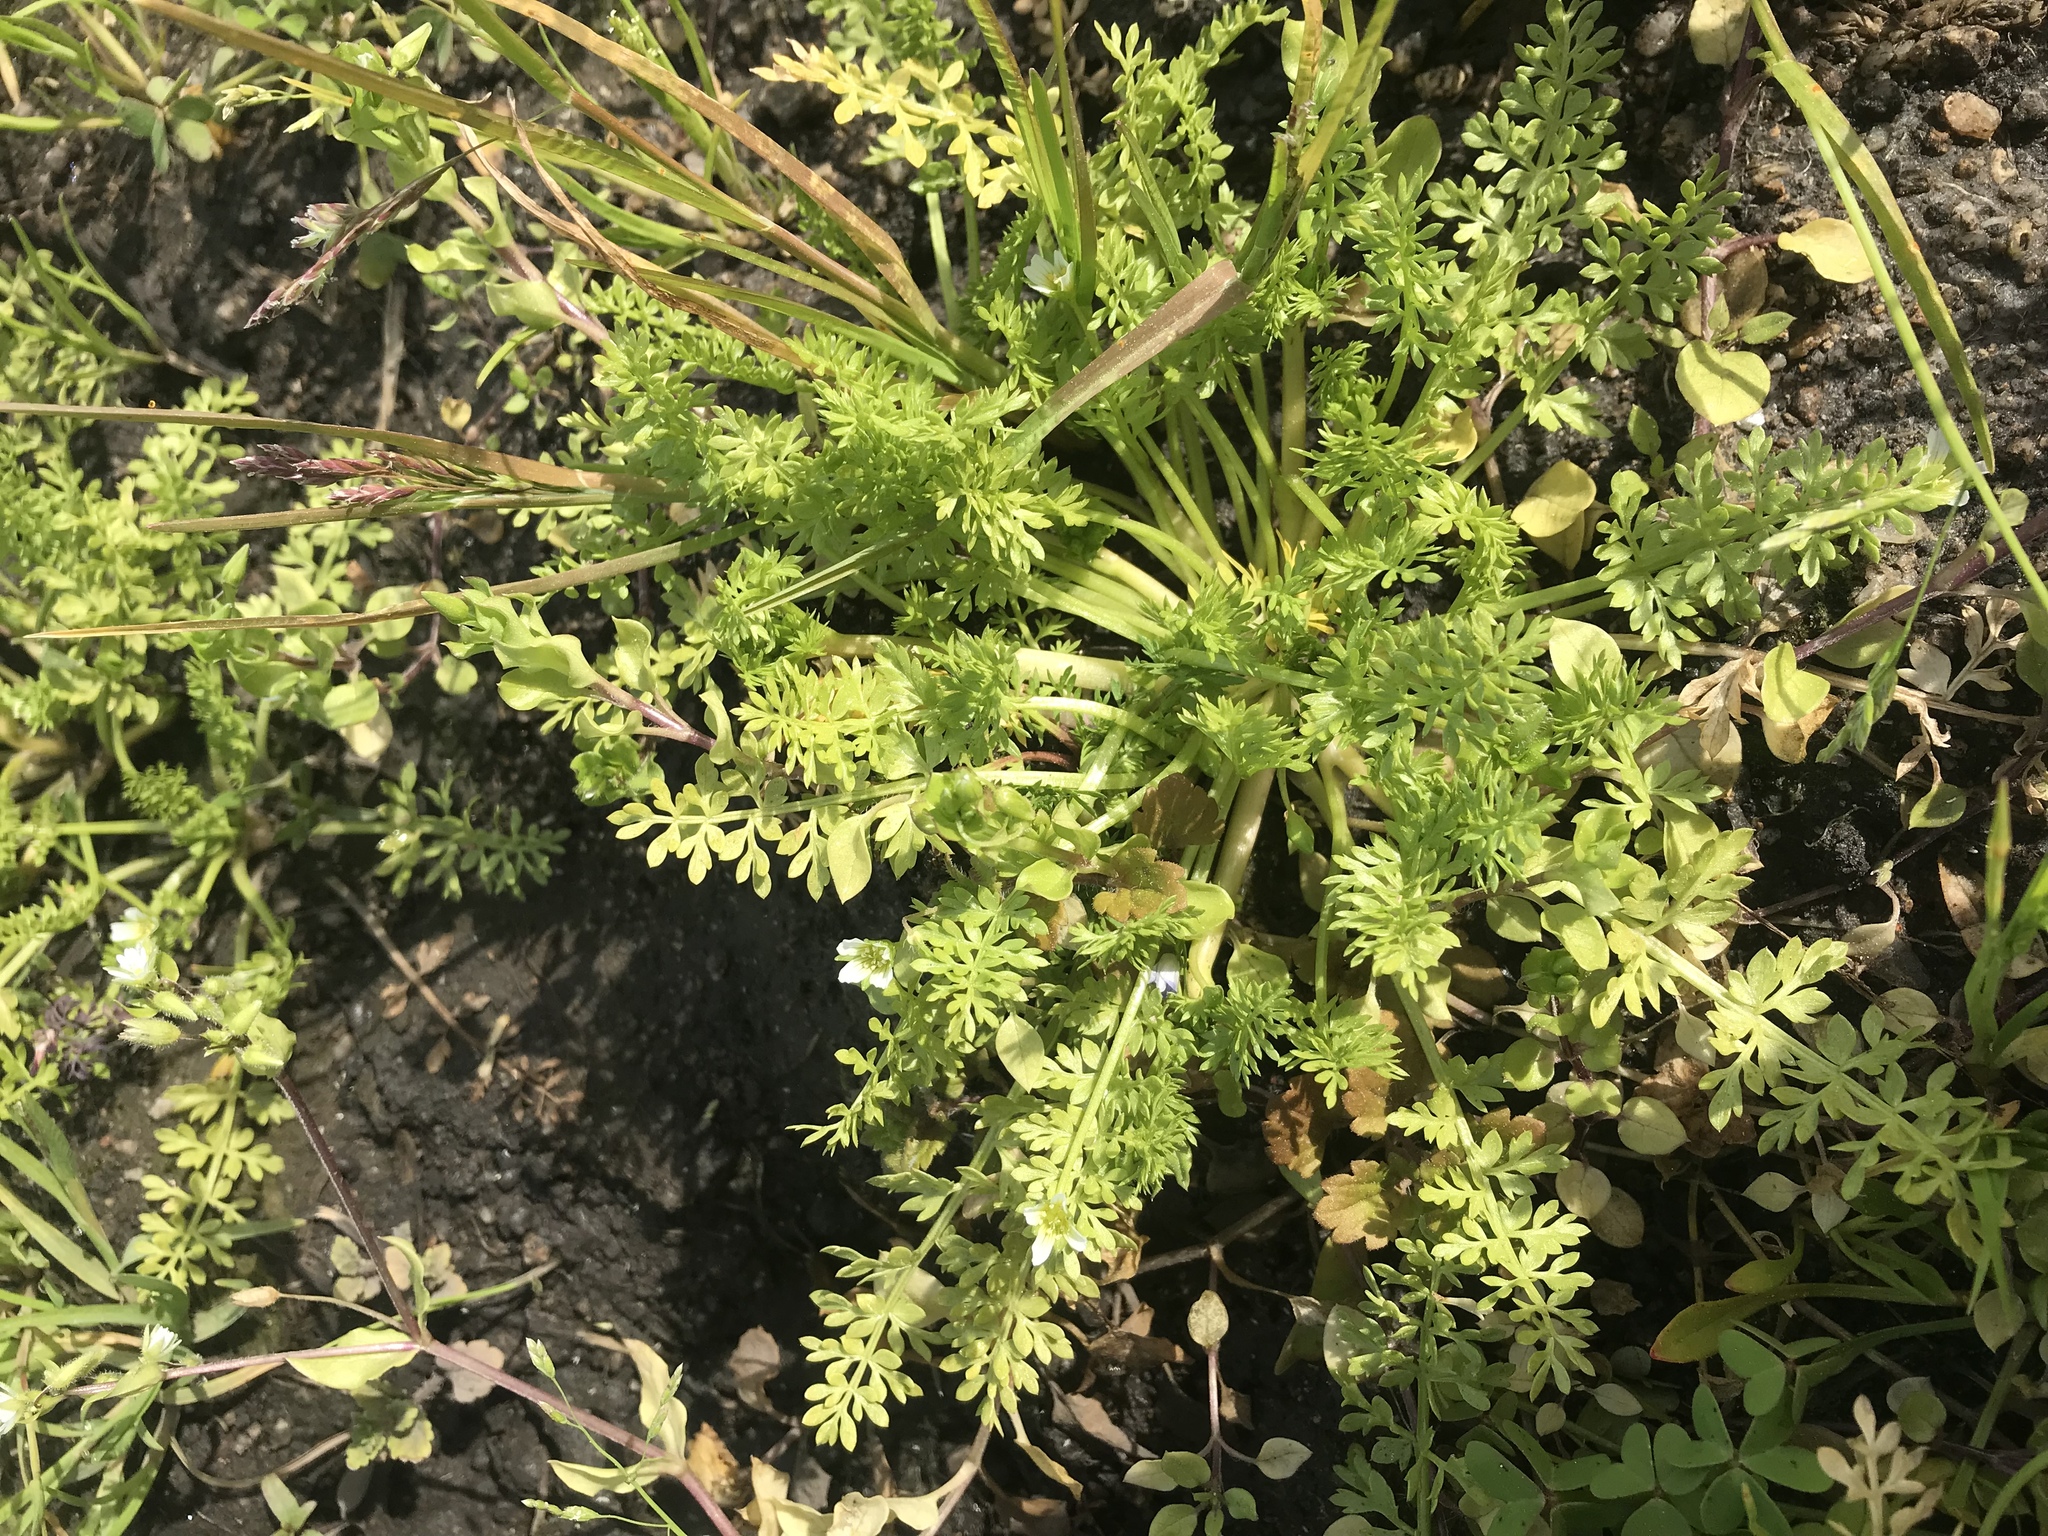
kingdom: Plantae
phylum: Tracheophyta
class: Magnoliopsida
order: Brassicales
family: Limnanthaceae
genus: Limnanthes
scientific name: Limnanthes douglasii
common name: Meadow-foam
